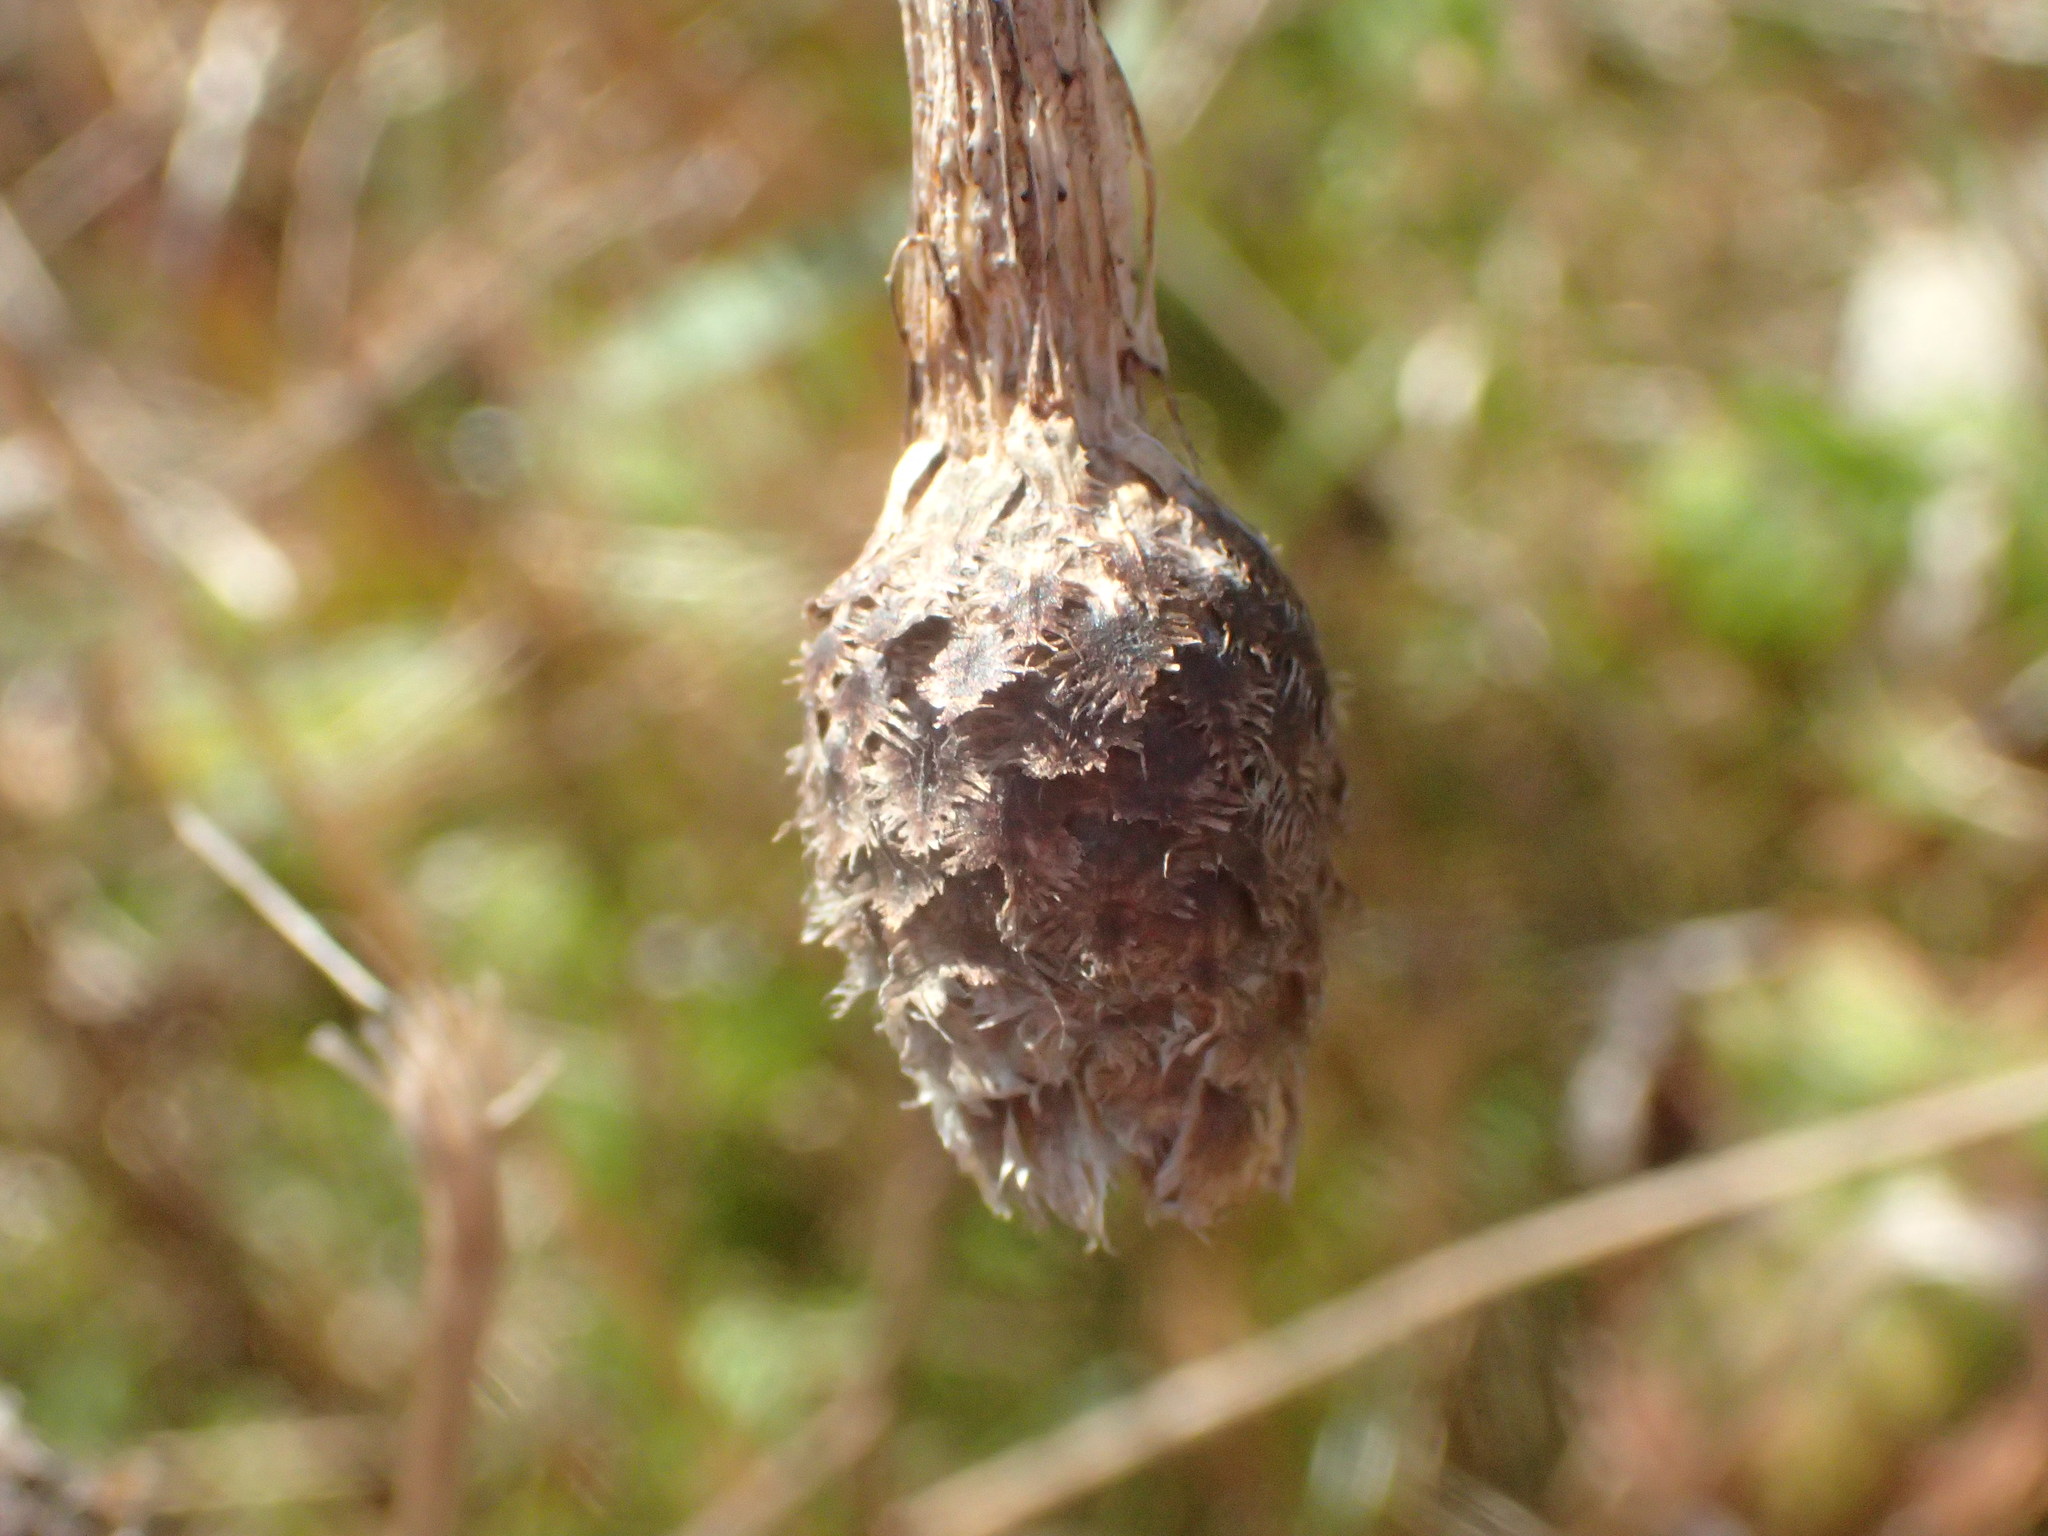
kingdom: Plantae
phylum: Tracheophyta
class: Magnoliopsida
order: Asterales
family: Asteraceae
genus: Centaurea
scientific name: Centaurea nigra
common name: Lesser knapweed
